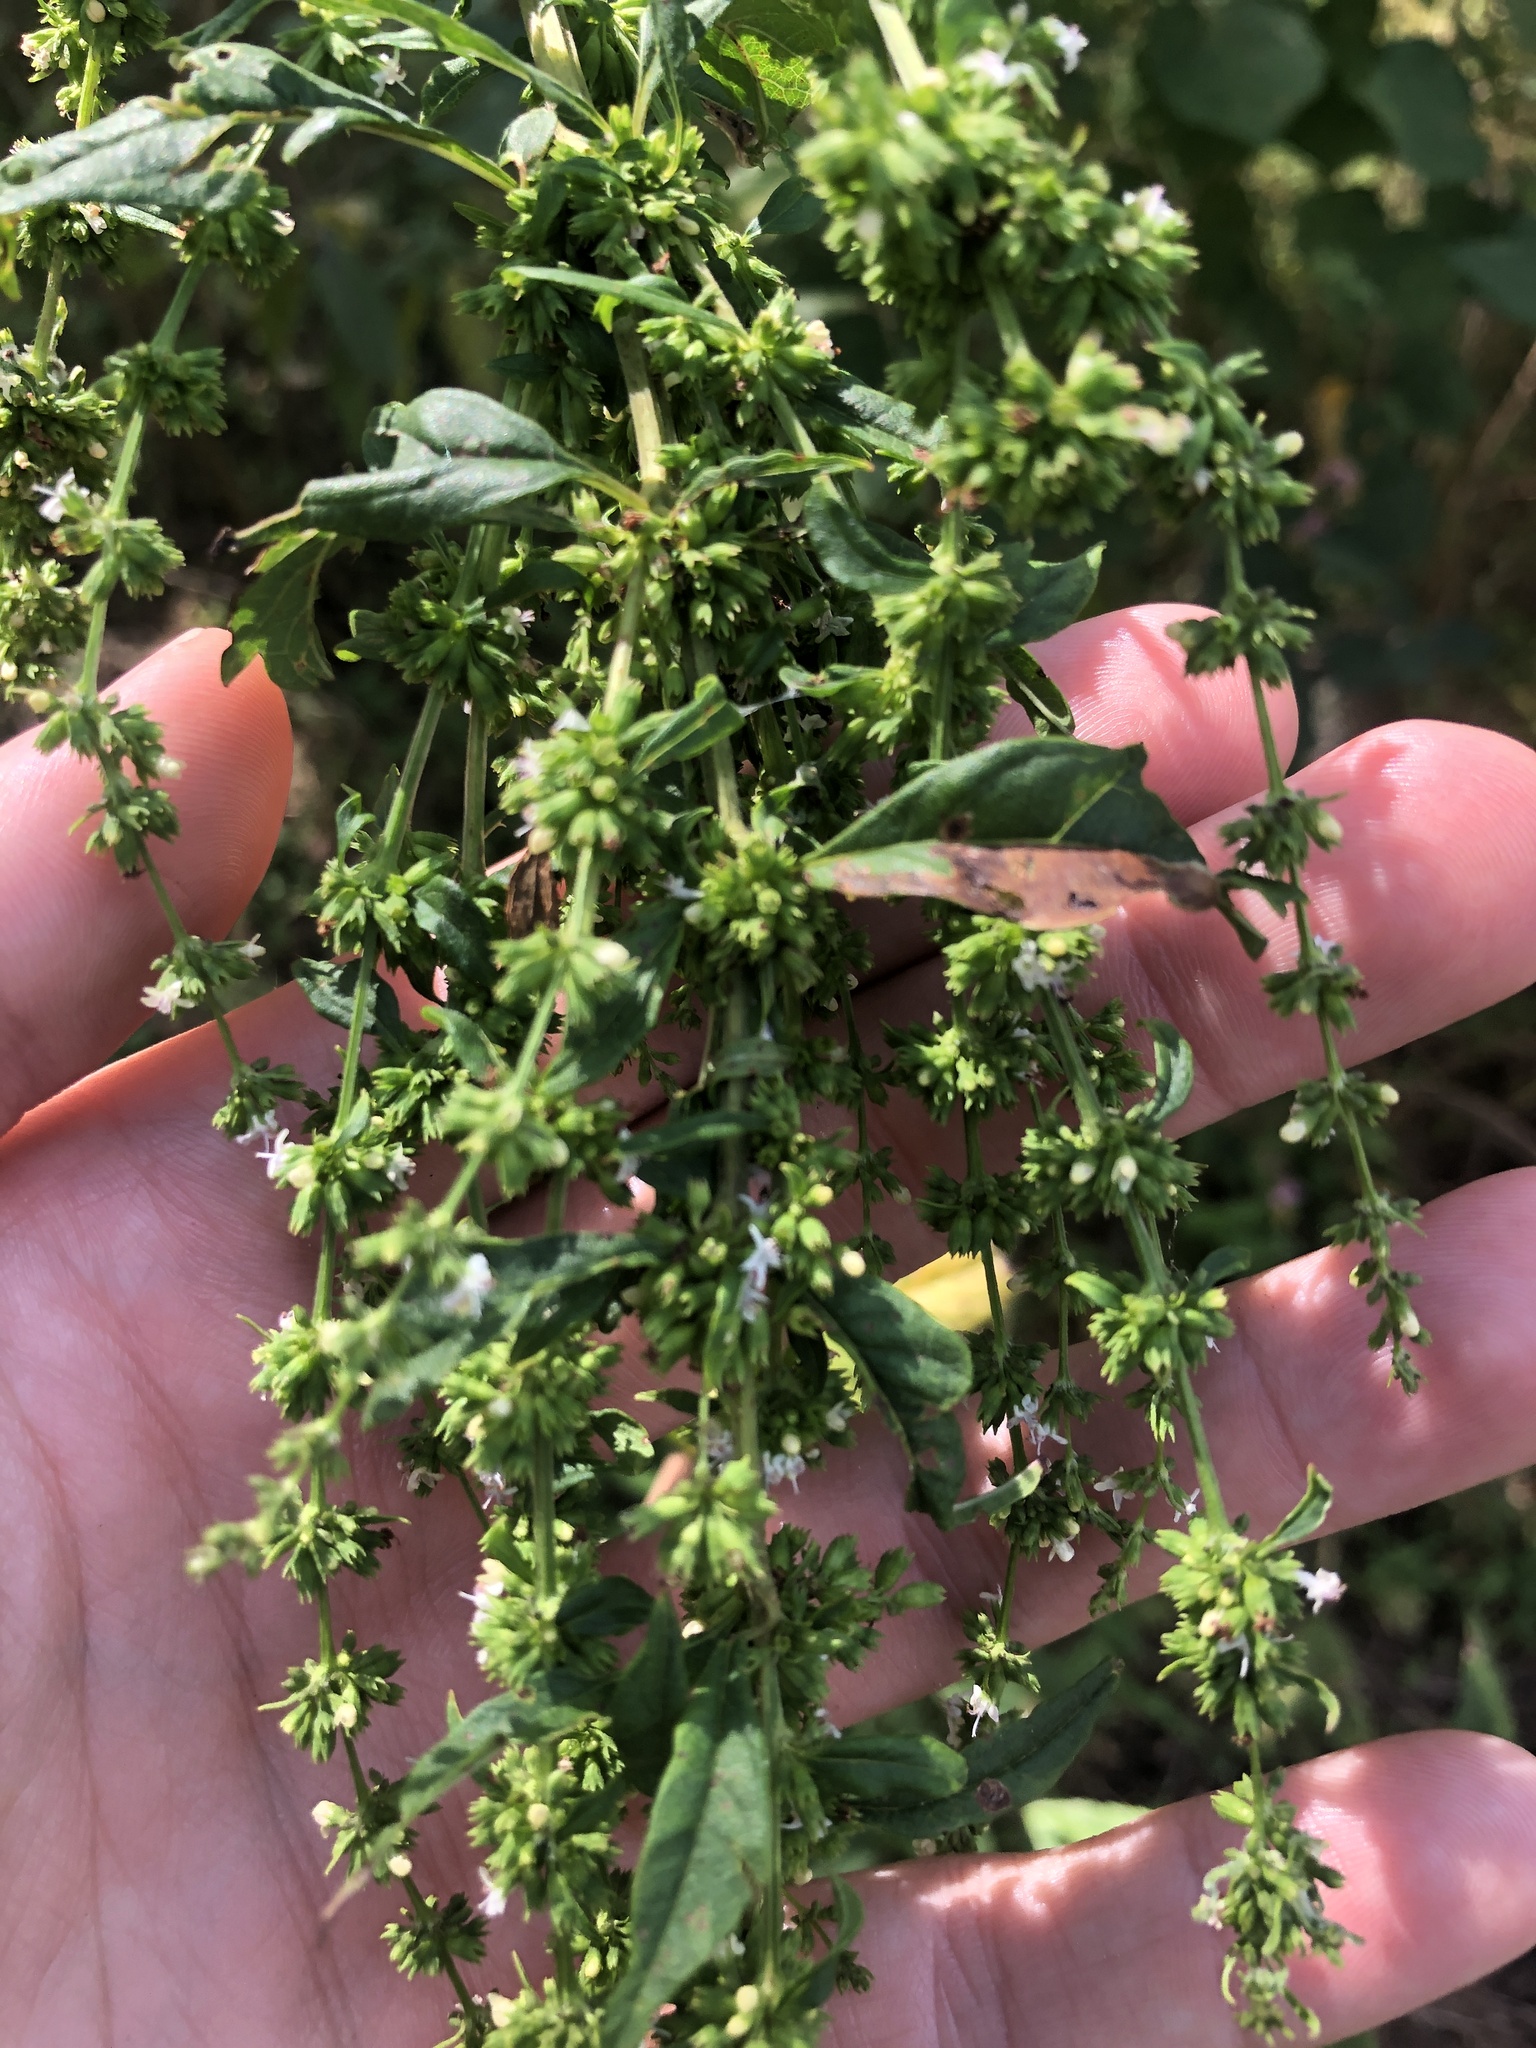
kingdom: Plantae
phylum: Tracheophyta
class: Magnoliopsida
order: Lamiales
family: Lamiaceae
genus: Condea
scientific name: Condea verticillata
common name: John charles
